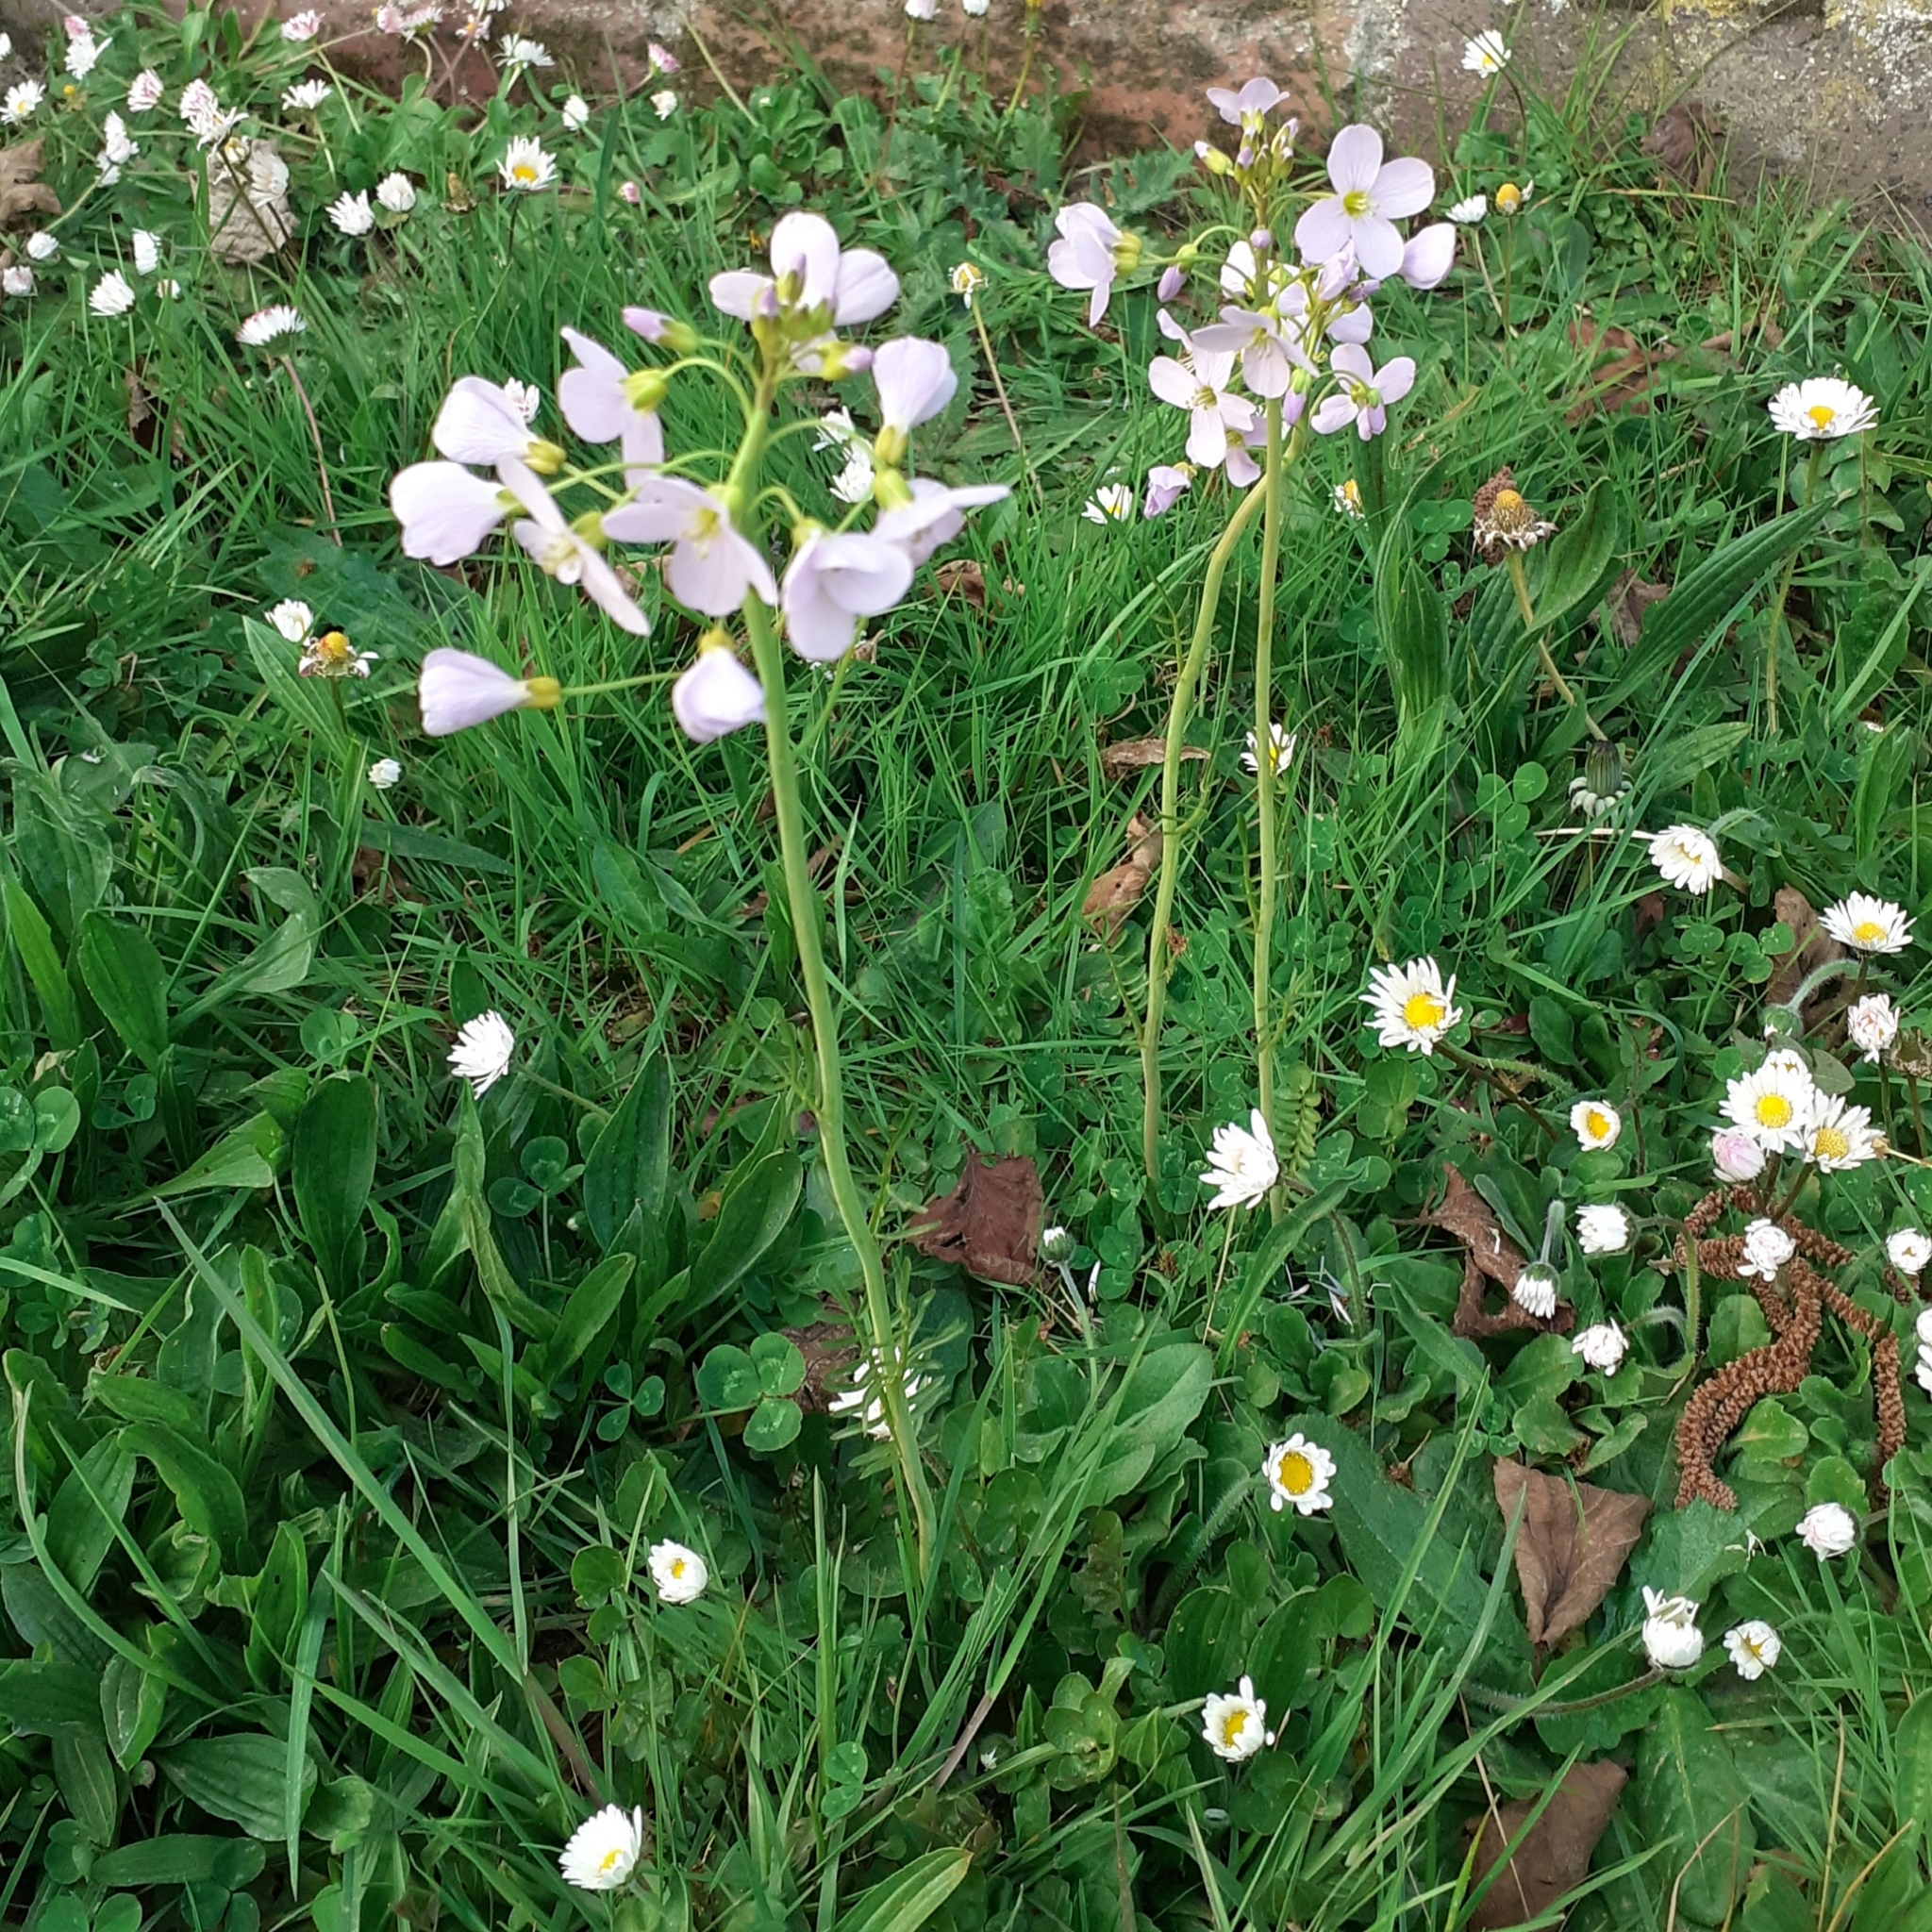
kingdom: Plantae
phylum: Tracheophyta
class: Magnoliopsida
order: Brassicales
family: Brassicaceae
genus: Cardamine
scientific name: Cardamine pratensis
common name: Cuckoo flower
